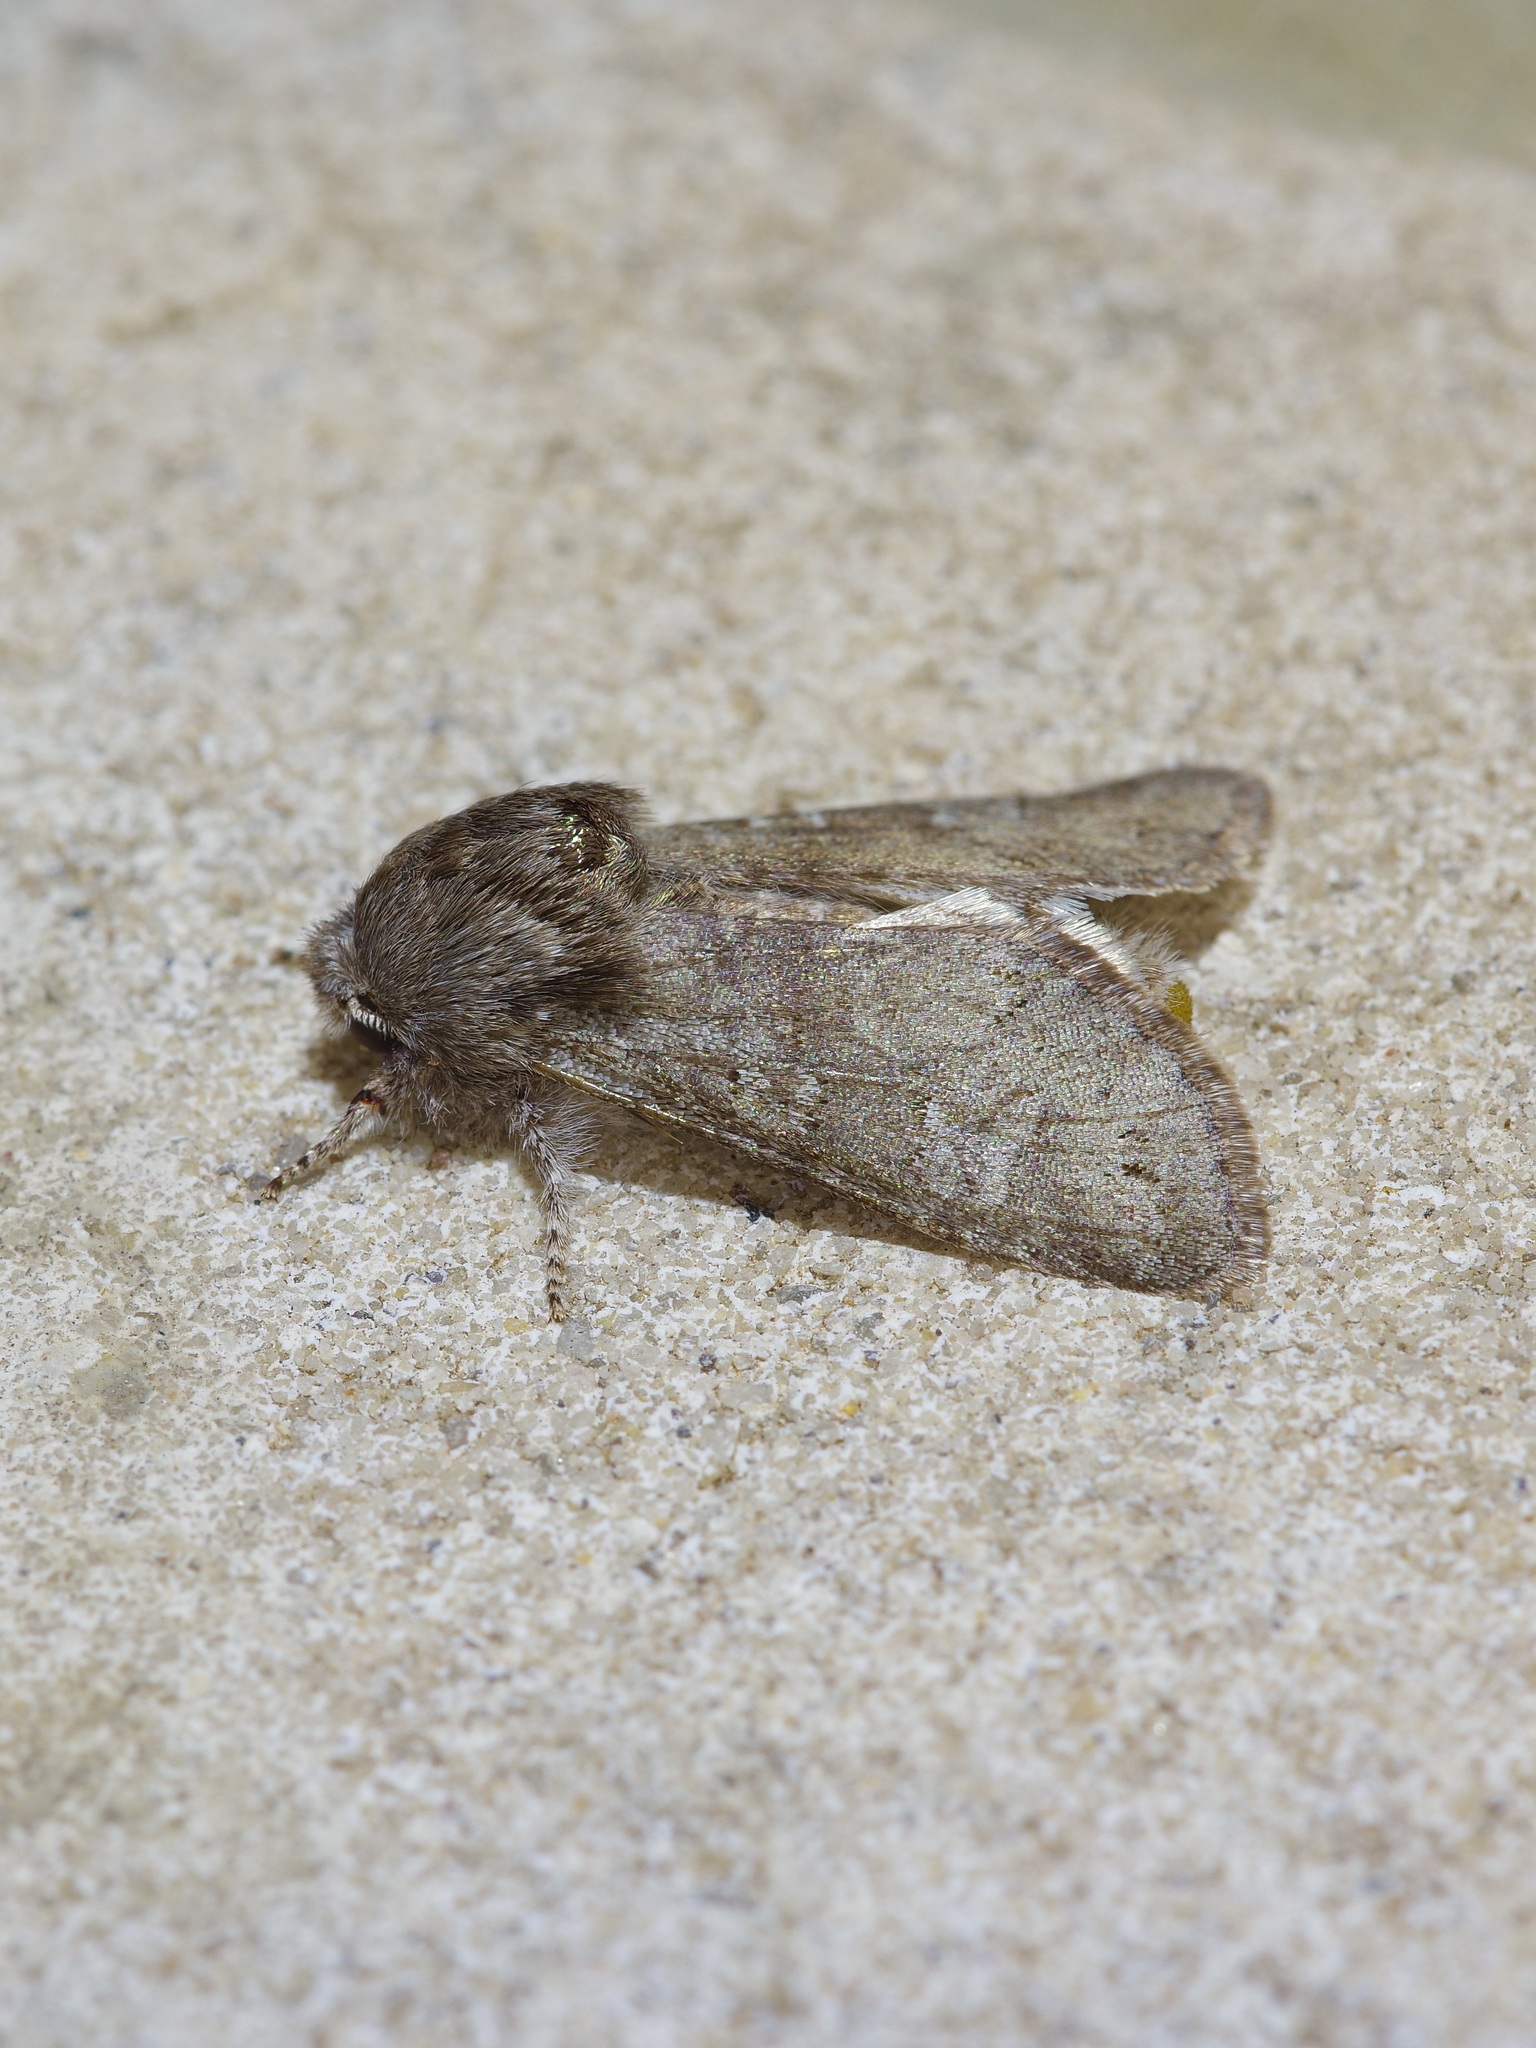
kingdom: Animalia
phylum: Arthropoda
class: Insecta
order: Lepidoptera
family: Noctuidae
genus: Psaphida
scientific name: Psaphida rolandi
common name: Roland's sallow
